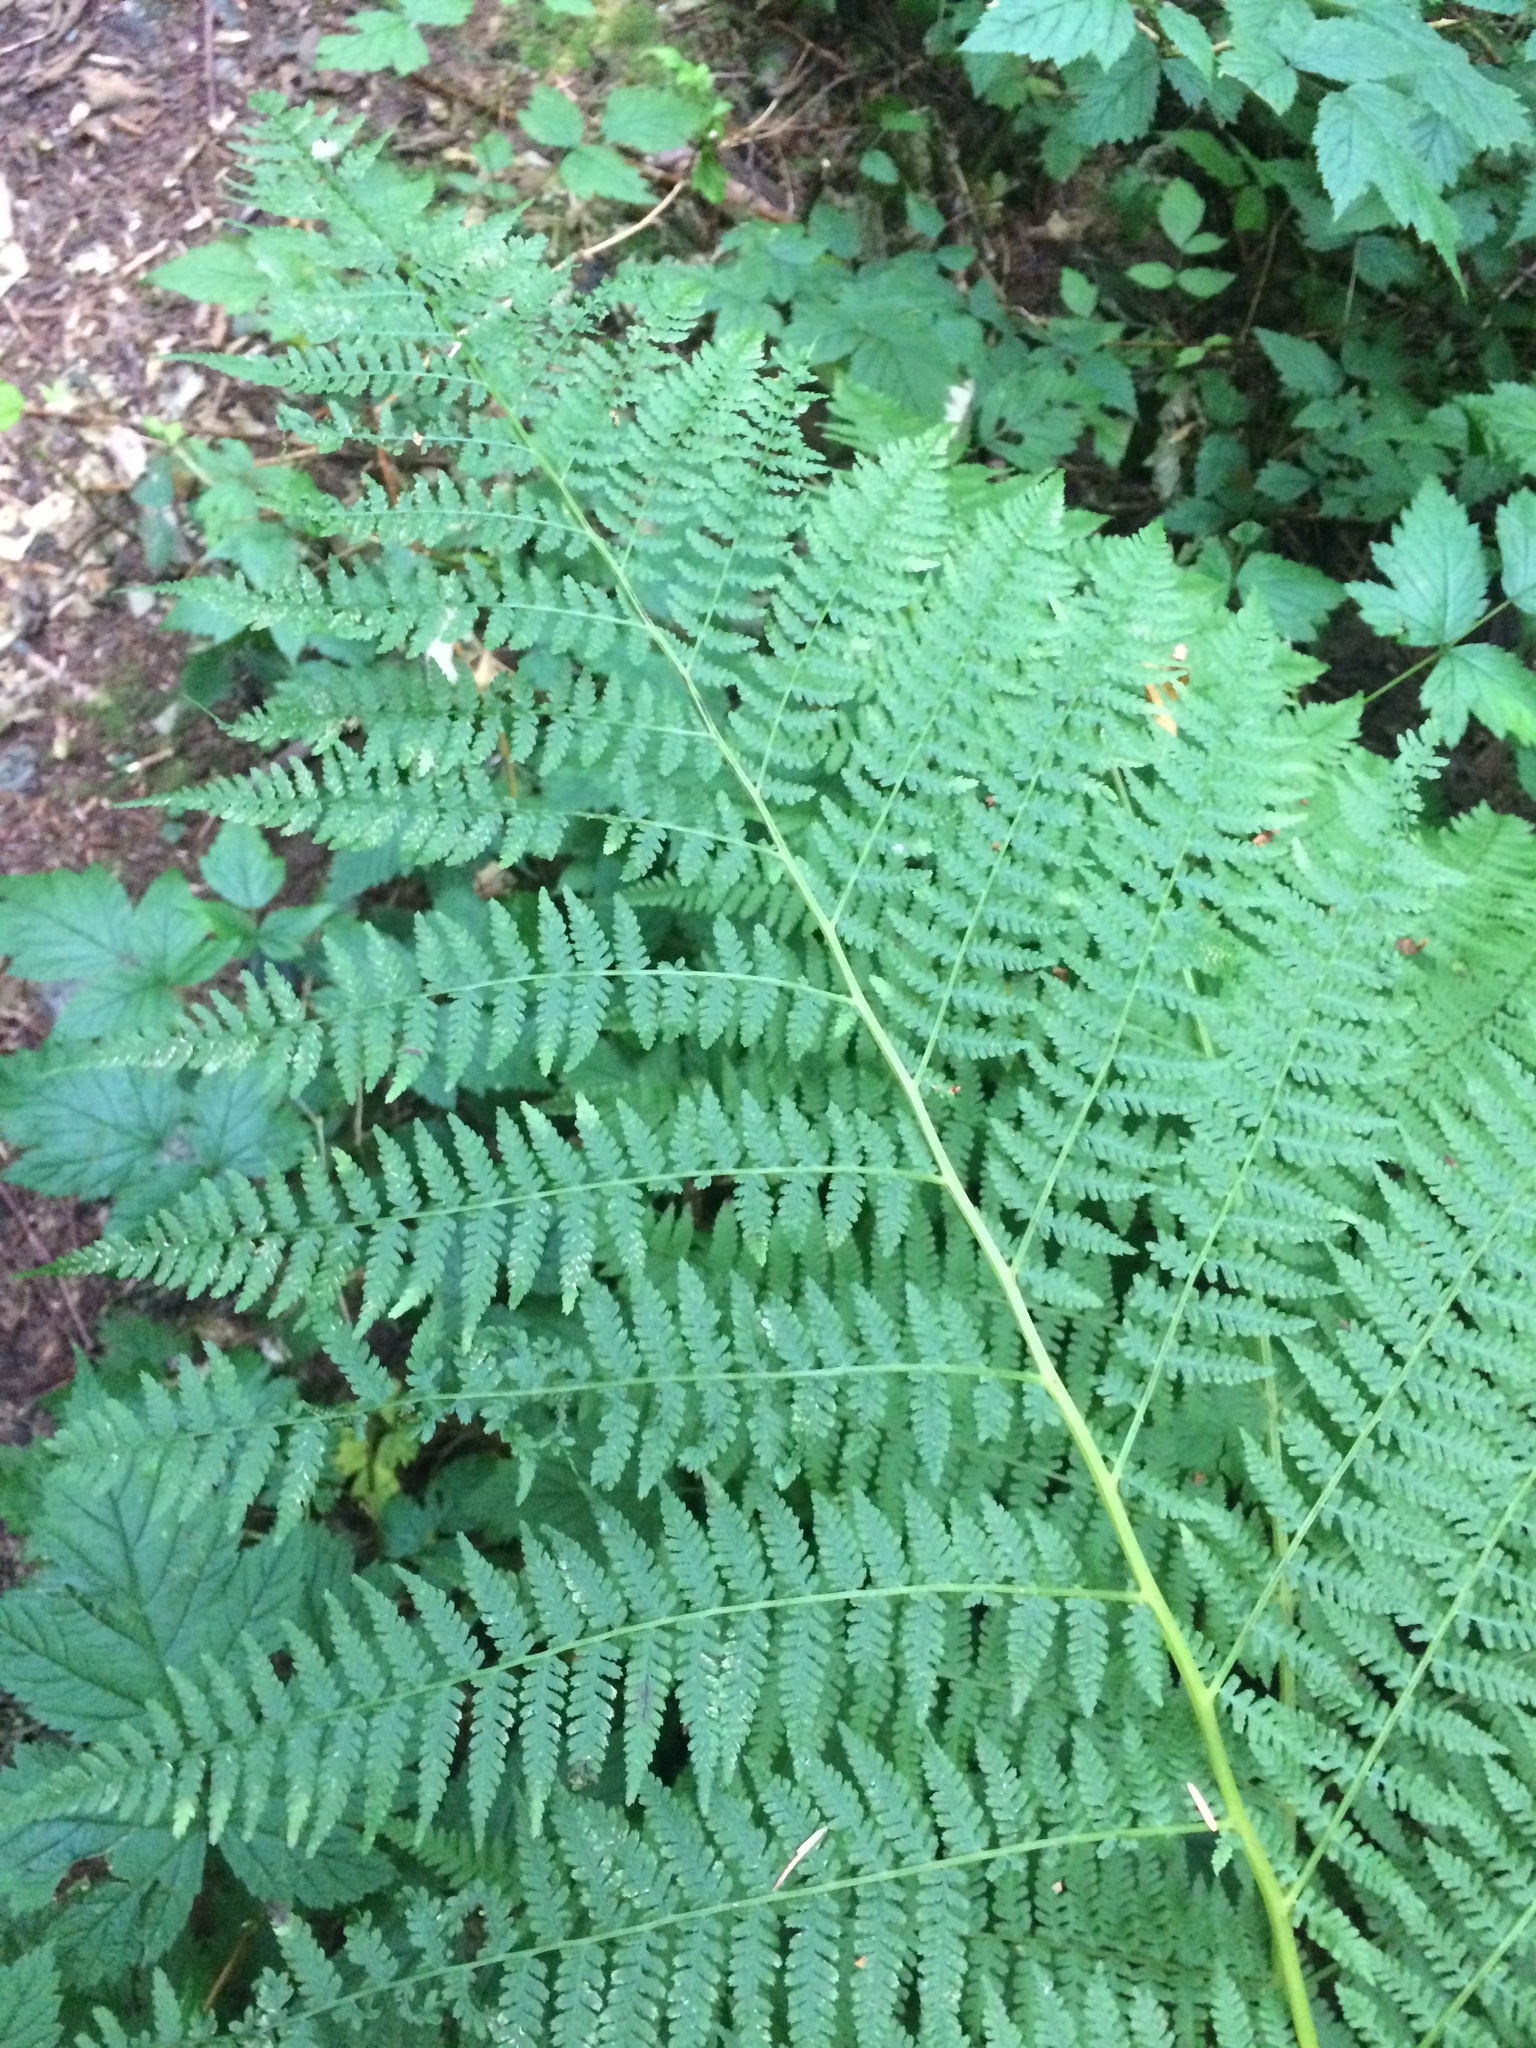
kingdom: Plantae
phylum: Tracheophyta
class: Polypodiopsida
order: Polypodiales
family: Athyriaceae
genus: Athyrium
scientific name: Athyrium filix-femina
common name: Lady fern
